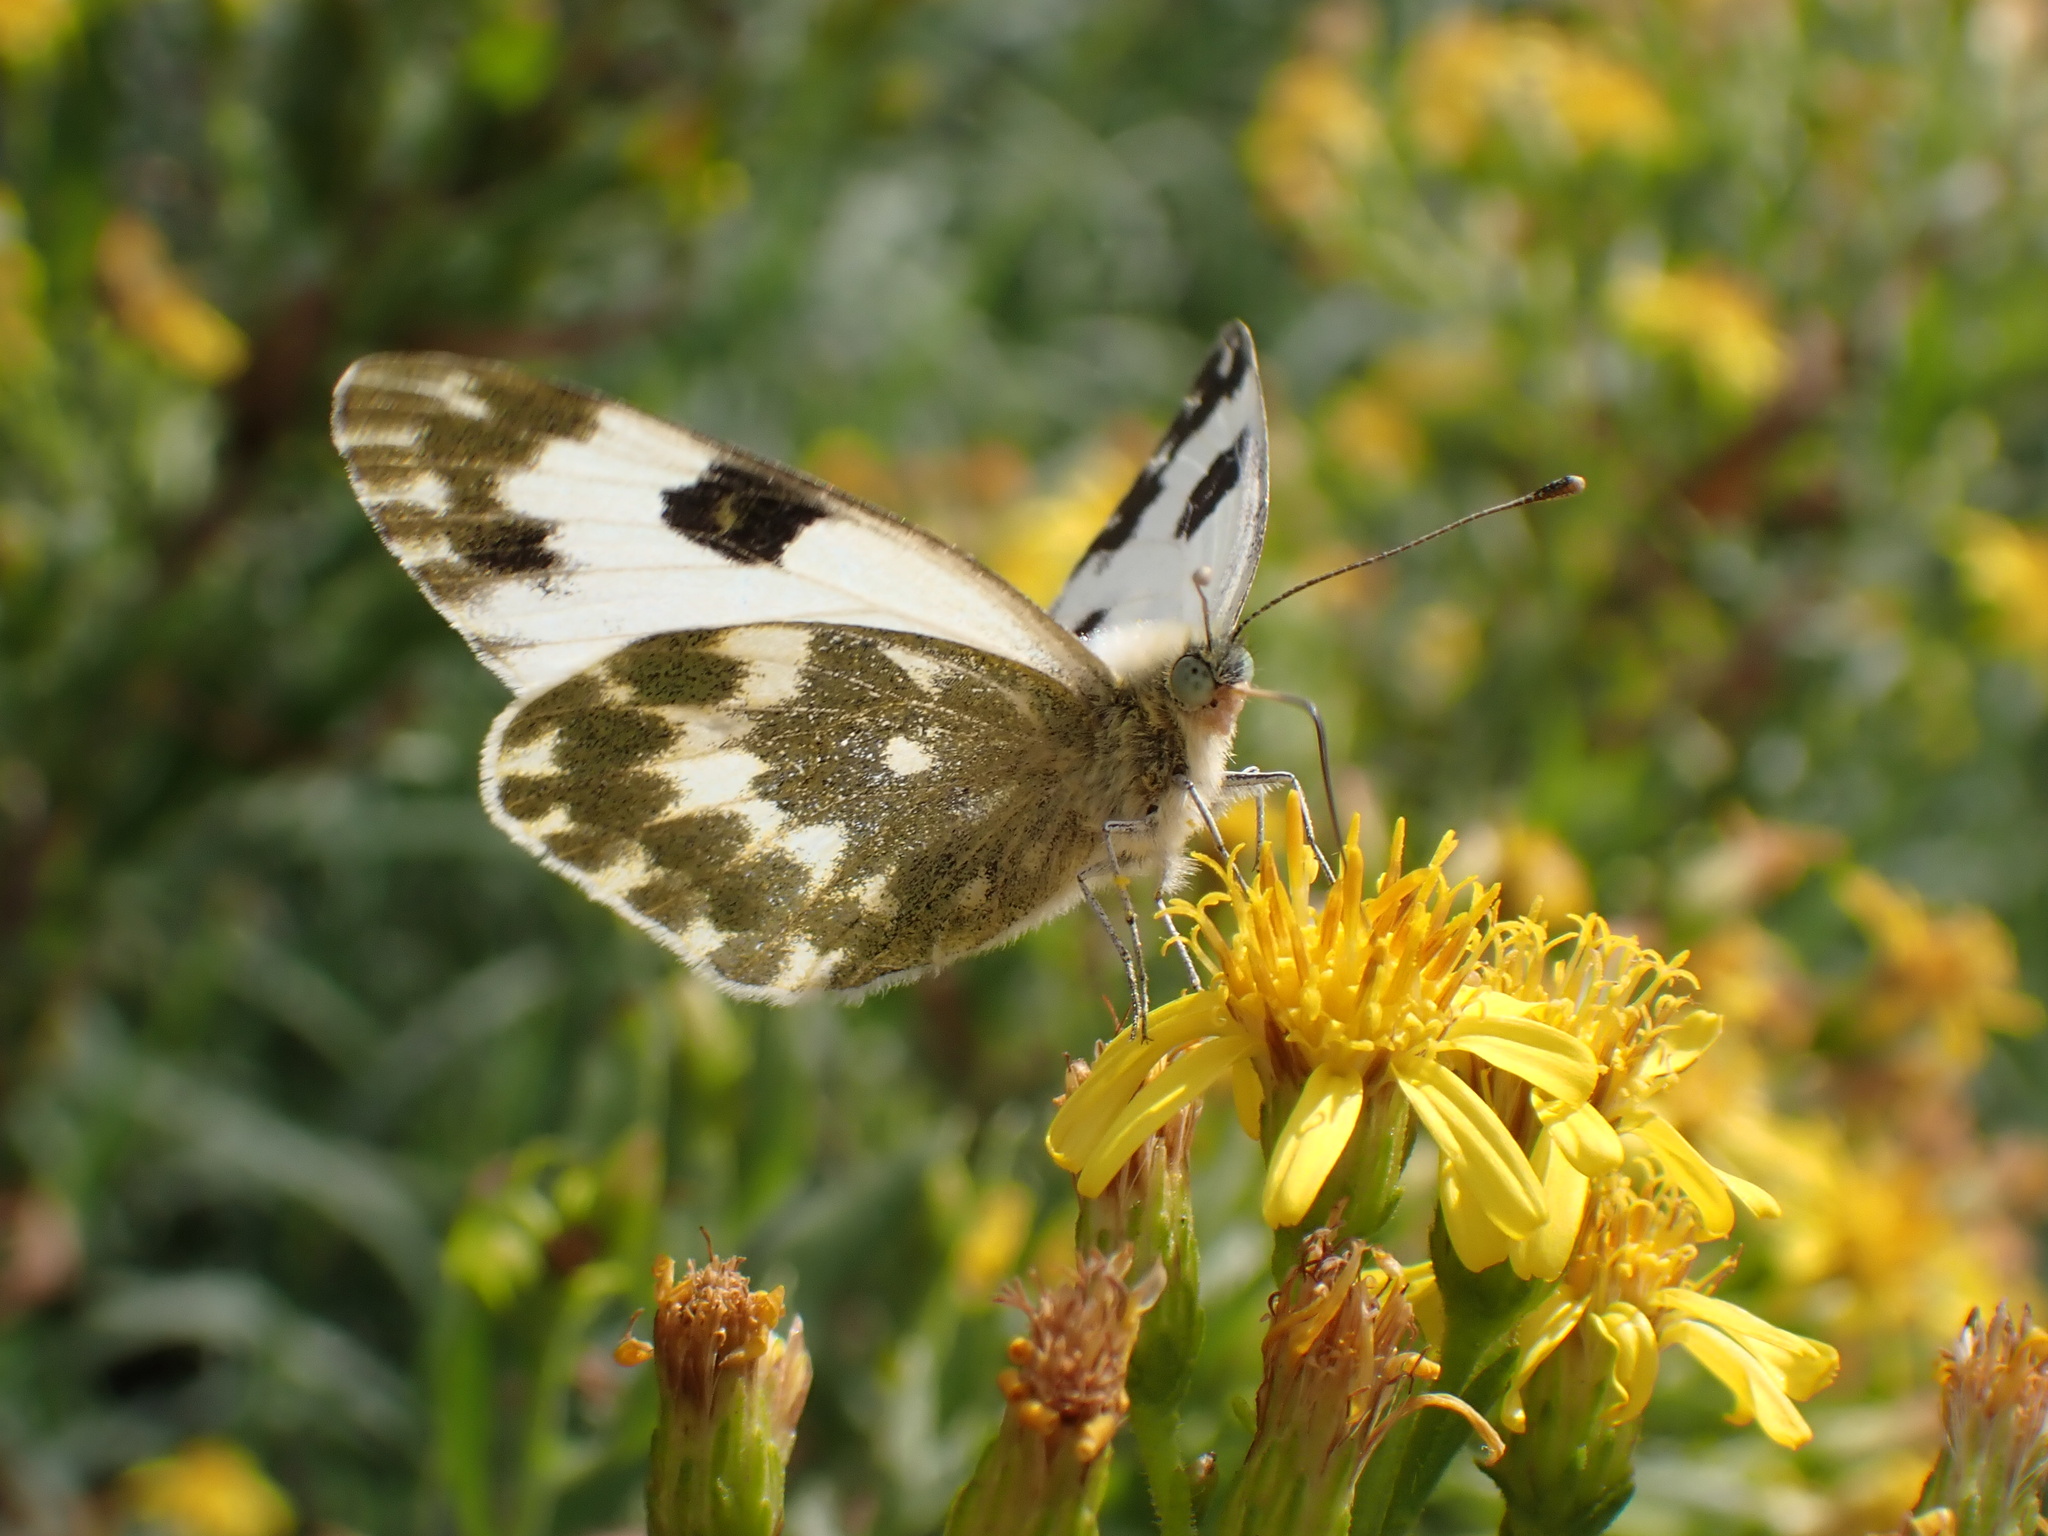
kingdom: Animalia
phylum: Arthropoda
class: Insecta
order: Lepidoptera
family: Pieridae
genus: Pontia
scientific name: Pontia daplidice
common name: Bath white
